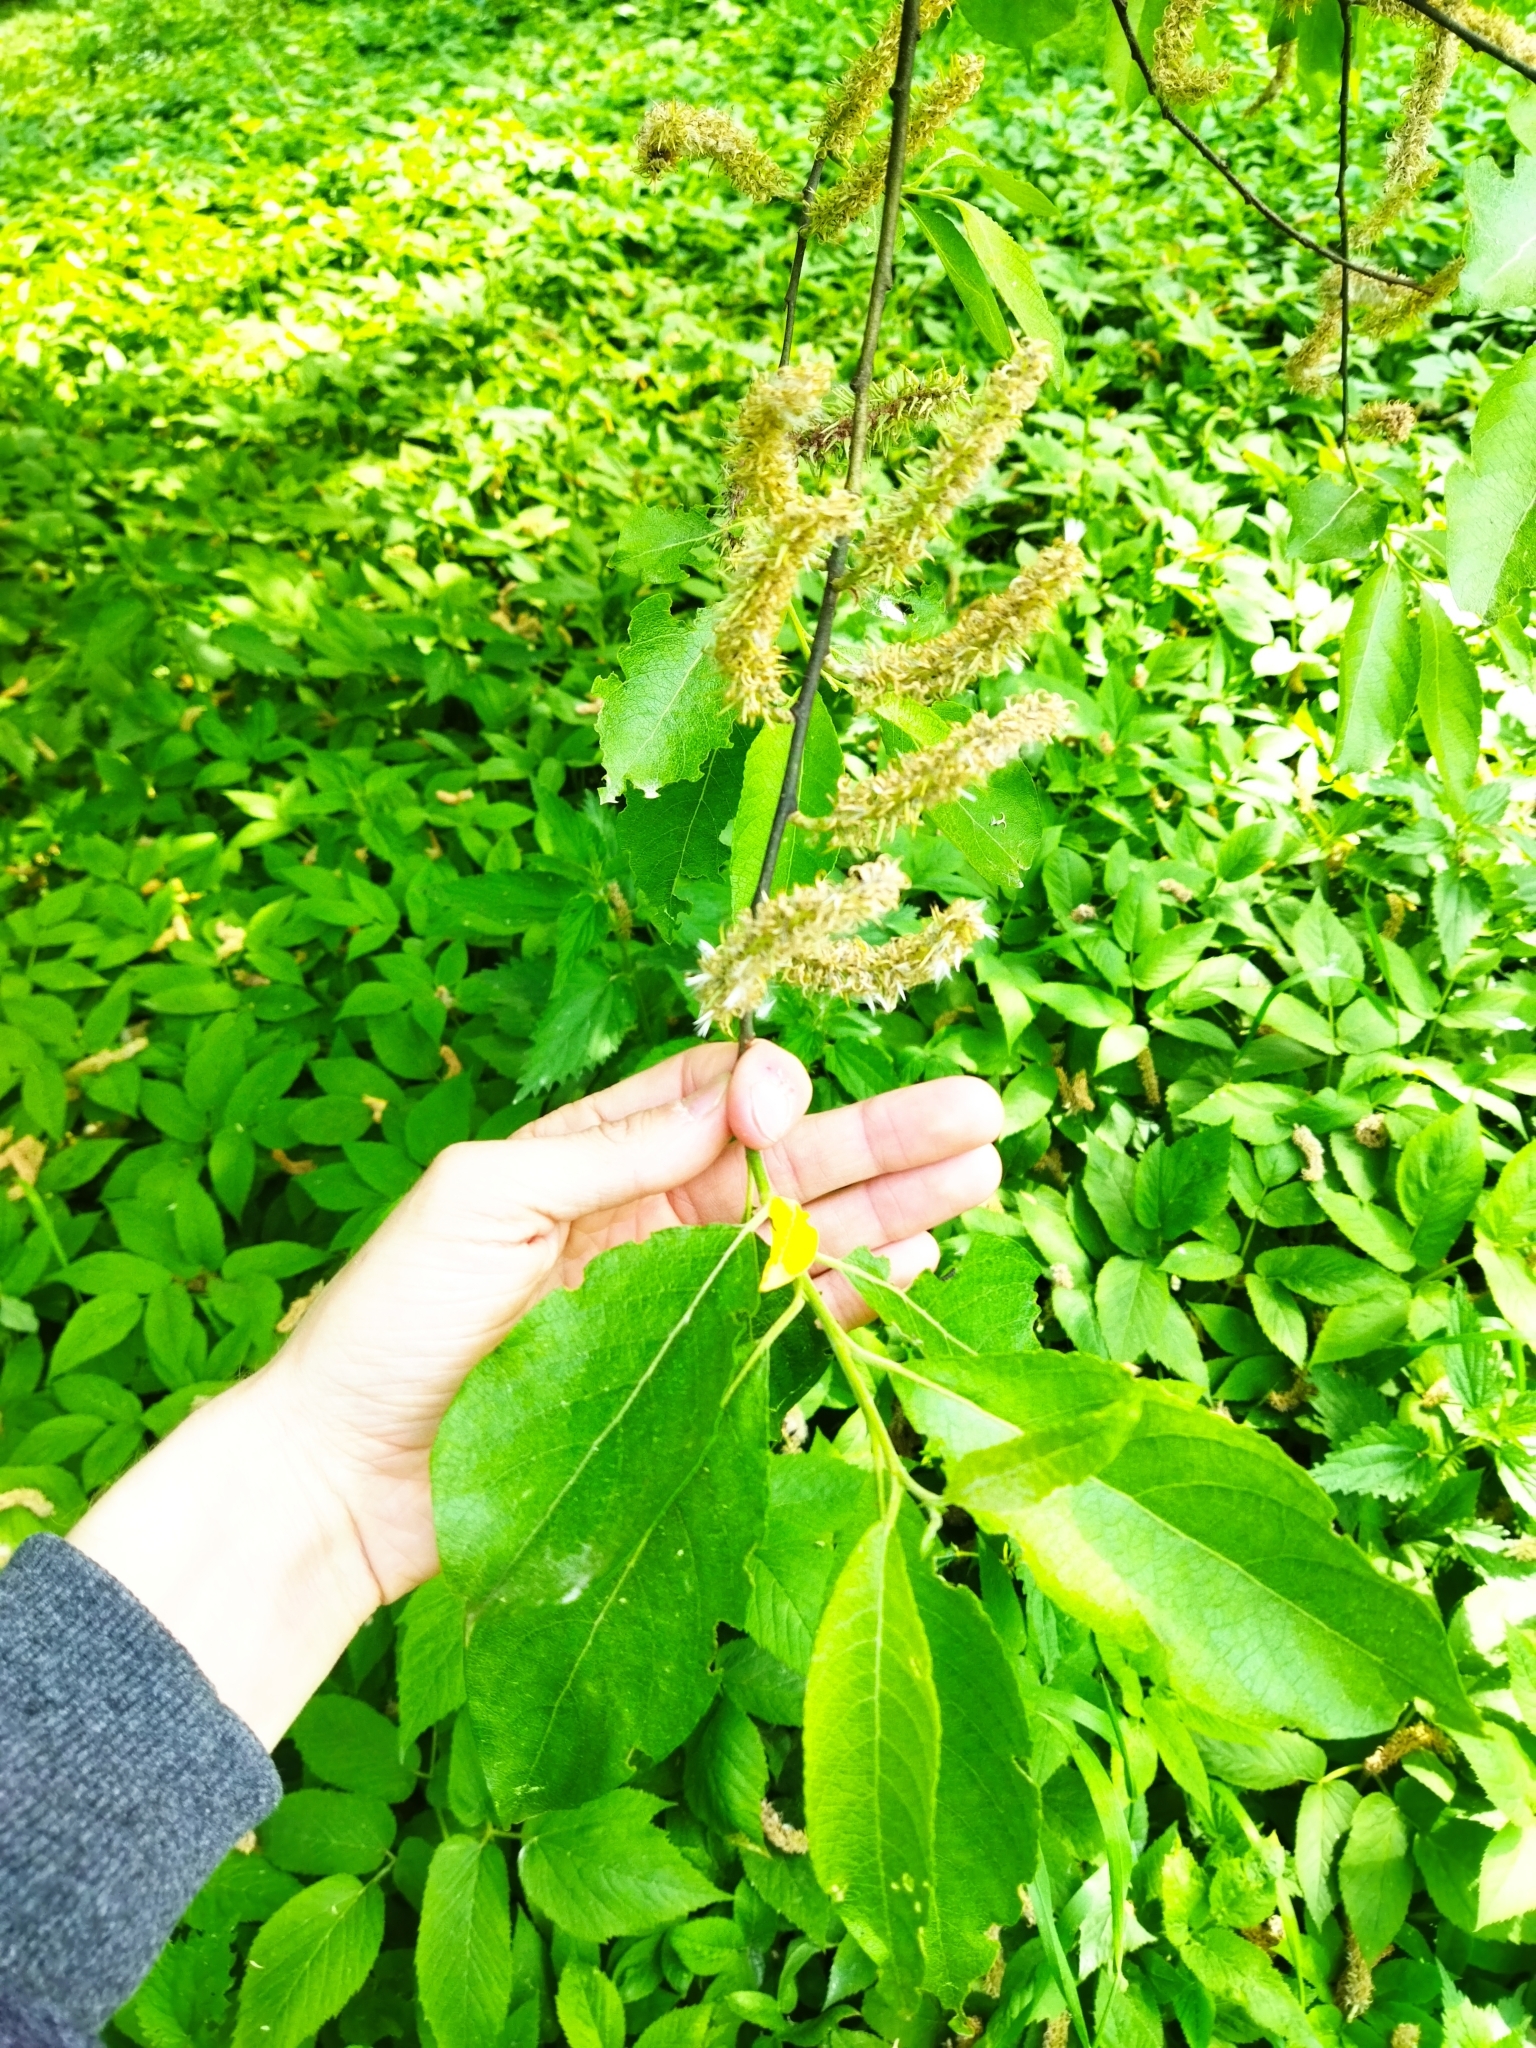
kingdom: Plantae
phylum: Tracheophyta
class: Magnoliopsida
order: Malpighiales
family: Salicaceae
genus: Salix
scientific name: Salix caprea
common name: Goat willow
